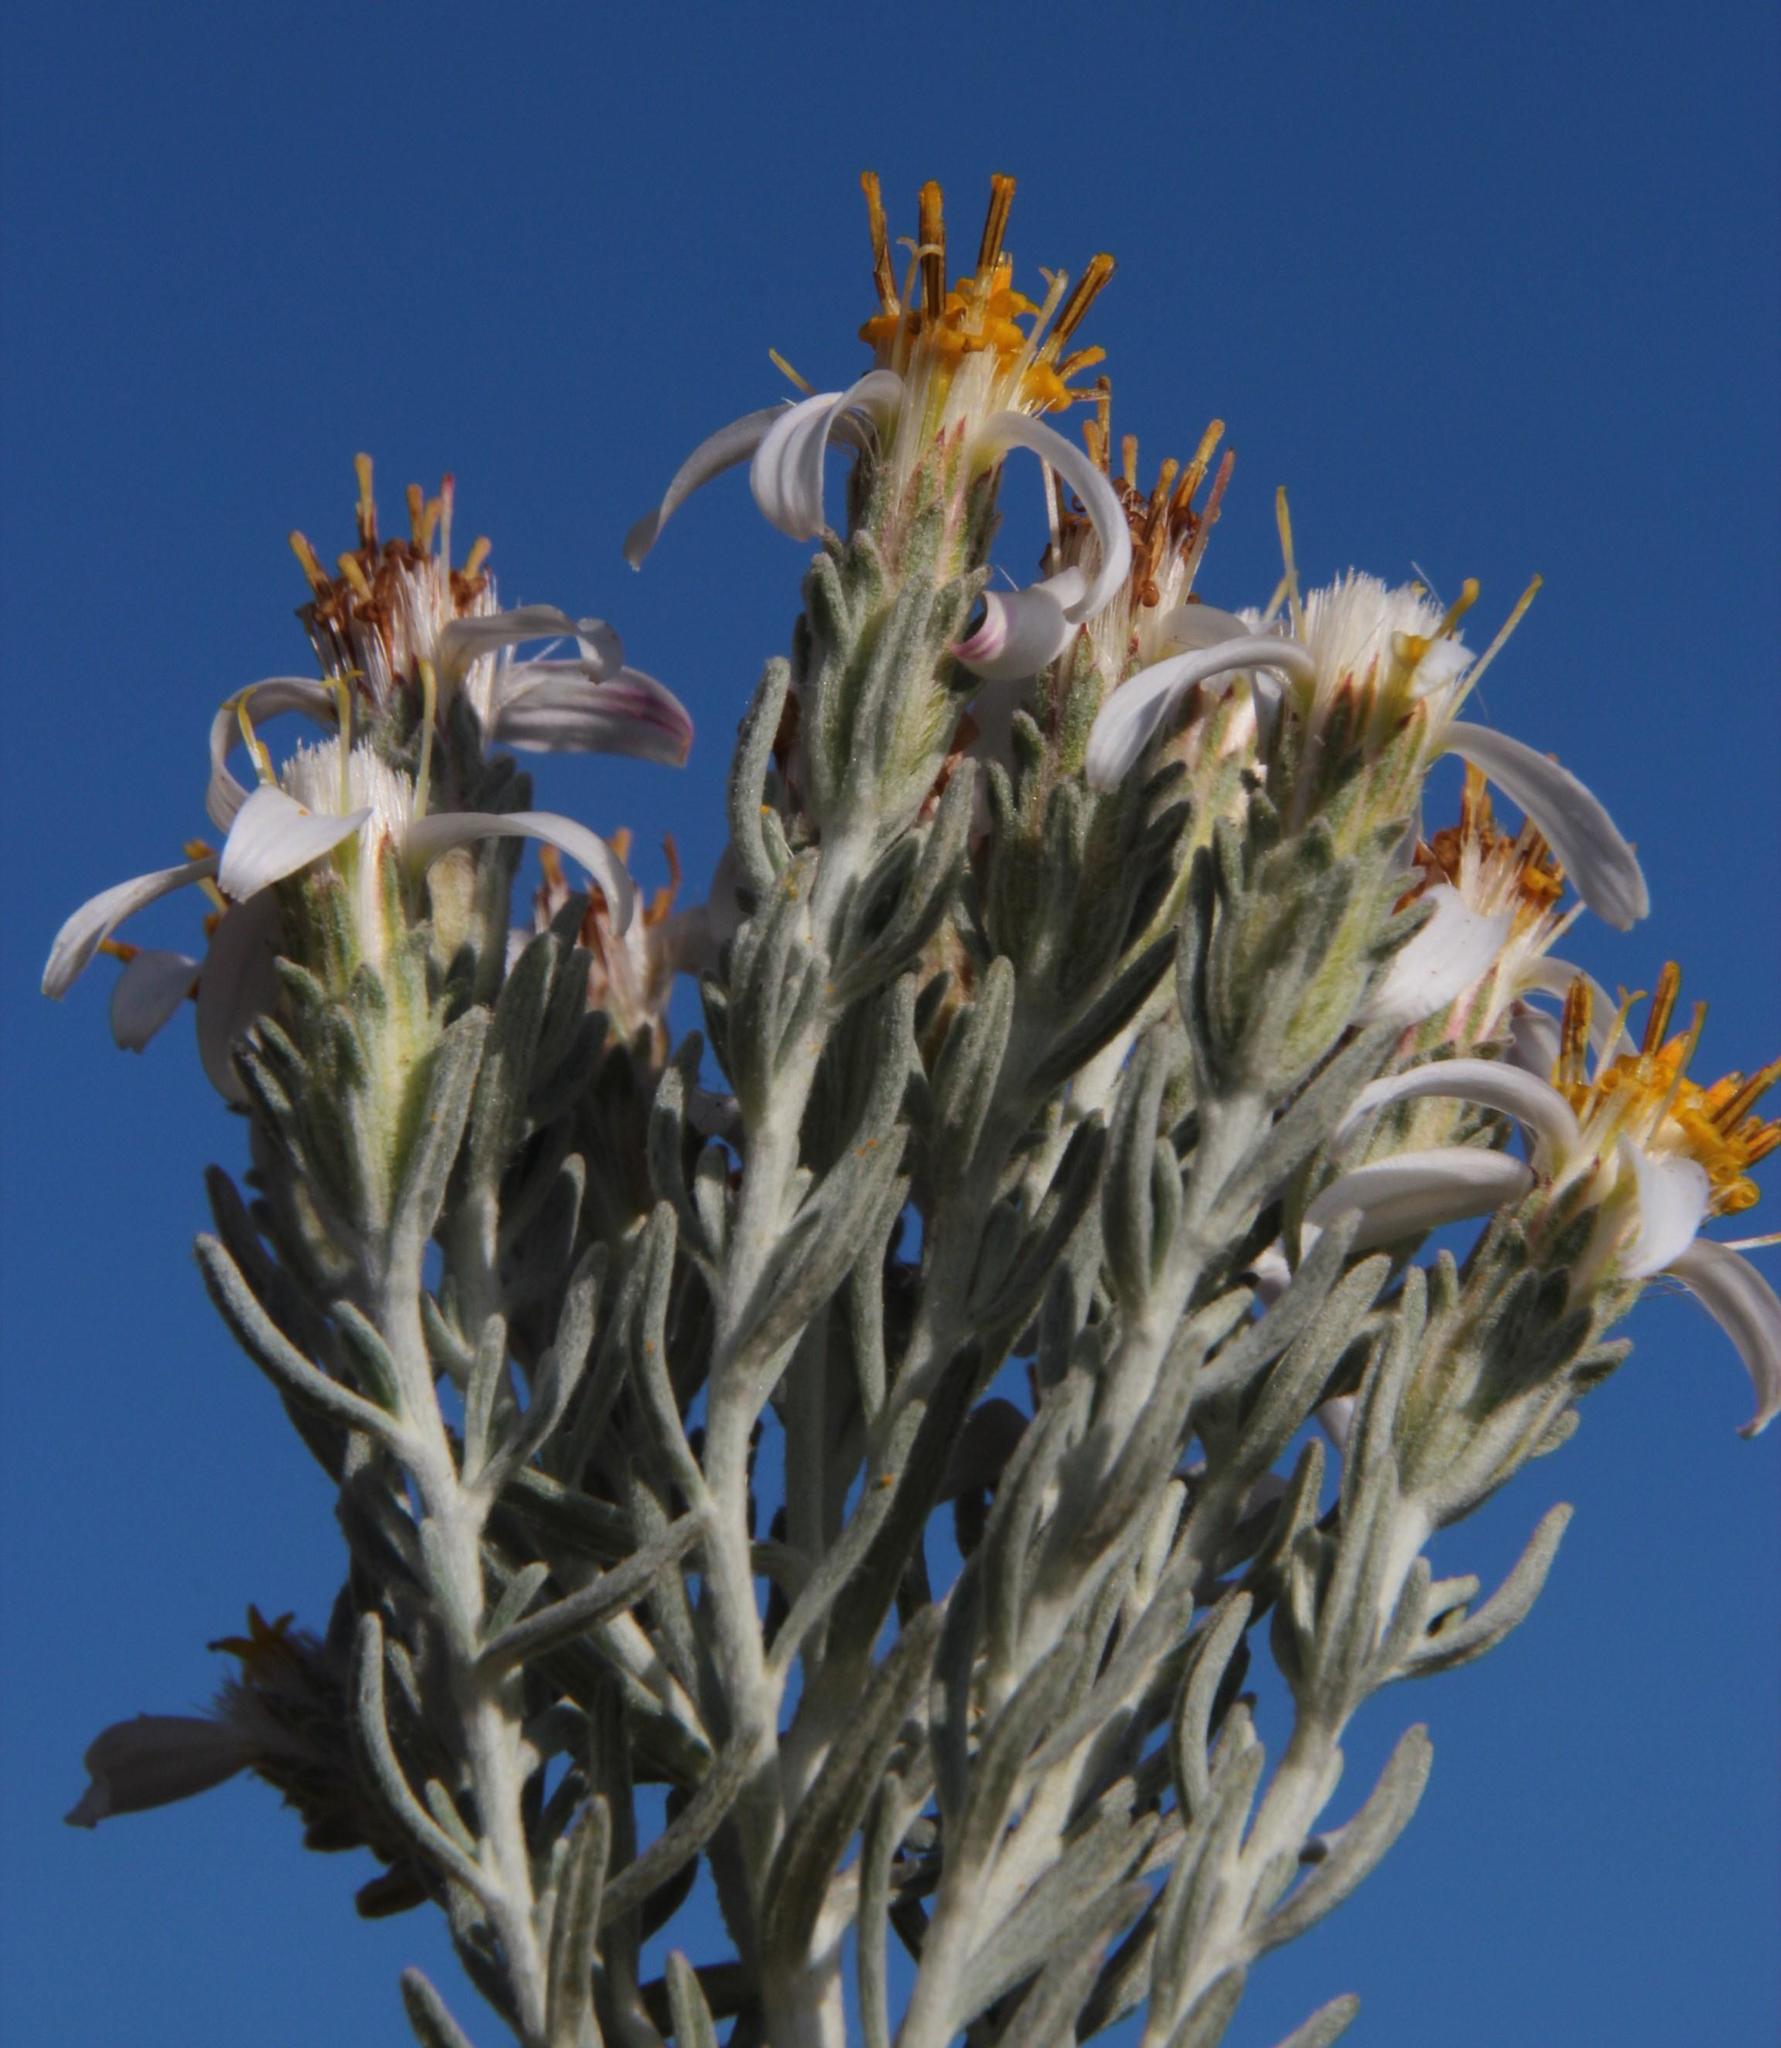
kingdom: Plantae
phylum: Tracheophyta
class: Magnoliopsida
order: Asterales
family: Asteraceae
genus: Printzia
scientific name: Printzia aromatica
